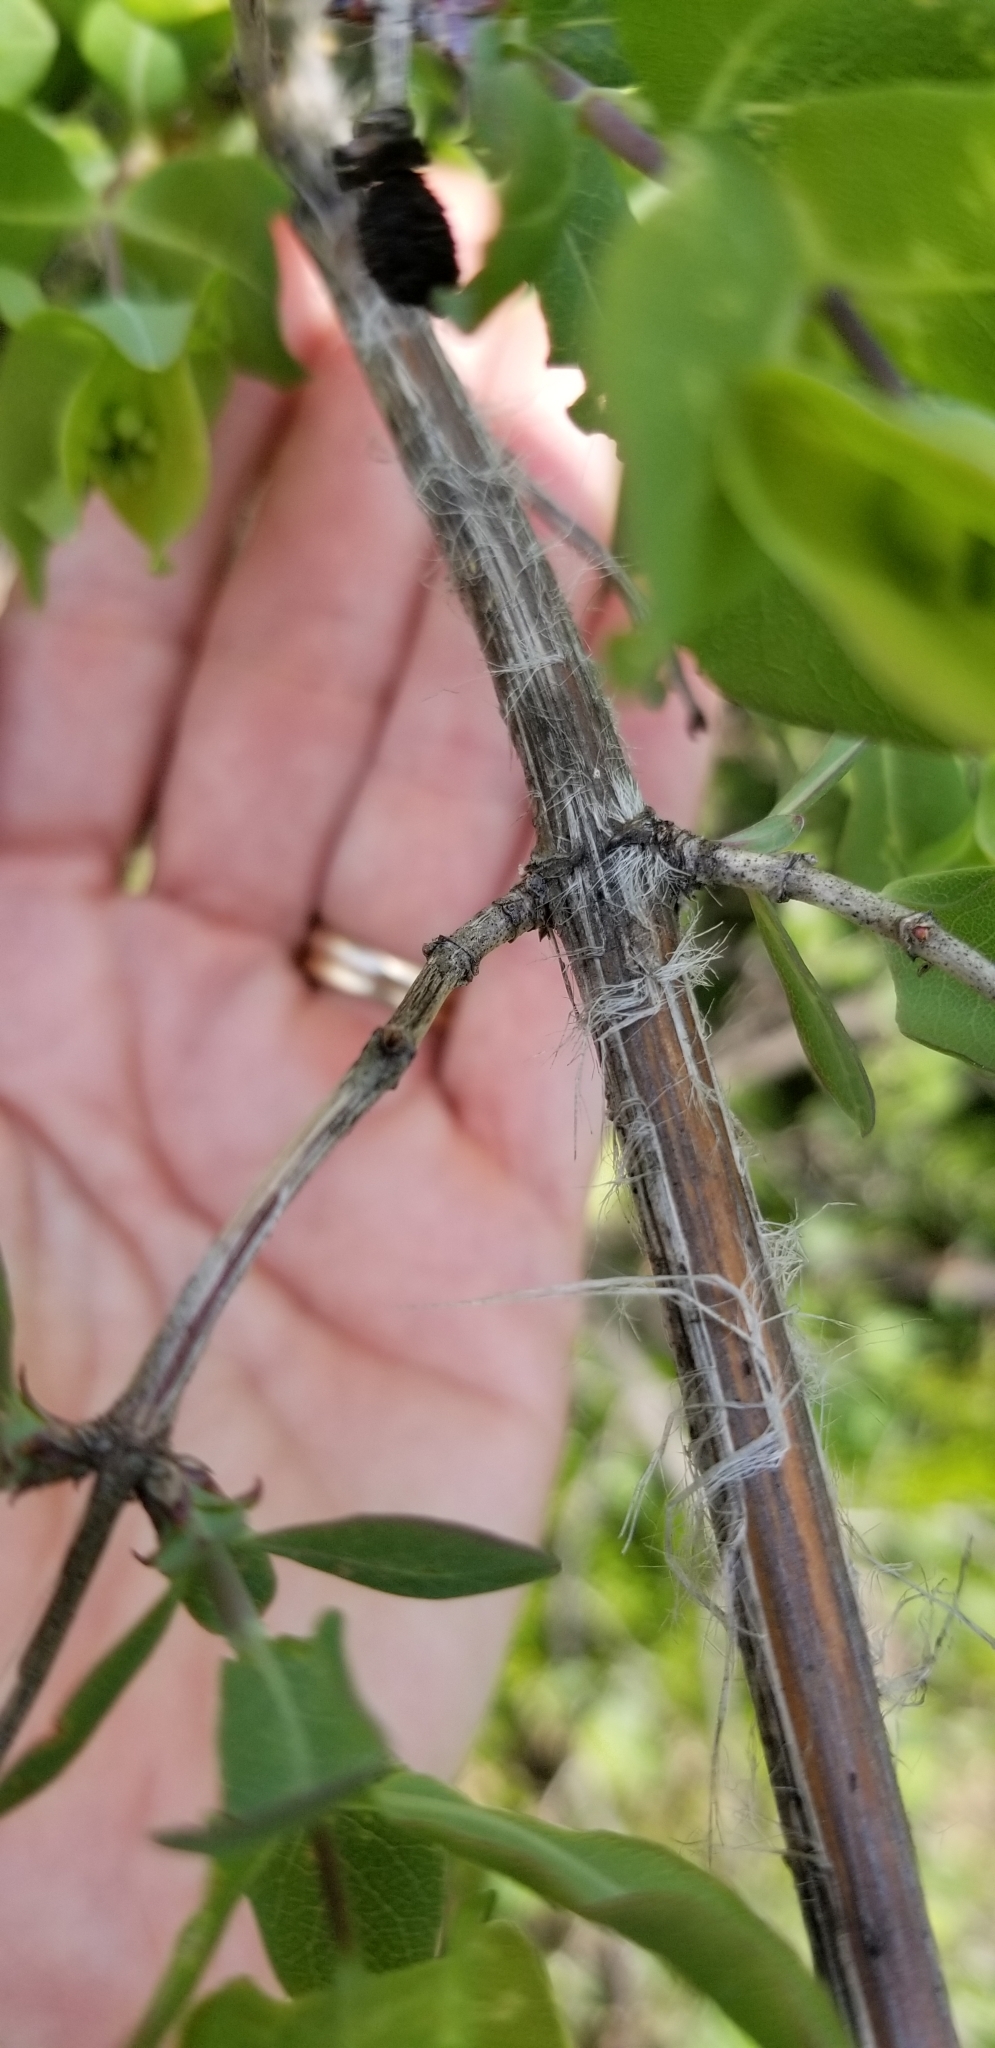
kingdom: Plantae
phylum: Tracheophyta
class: Magnoliopsida
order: Dipsacales
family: Caprifoliaceae
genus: Lonicera
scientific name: Lonicera albiflora
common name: White honeysuckle
